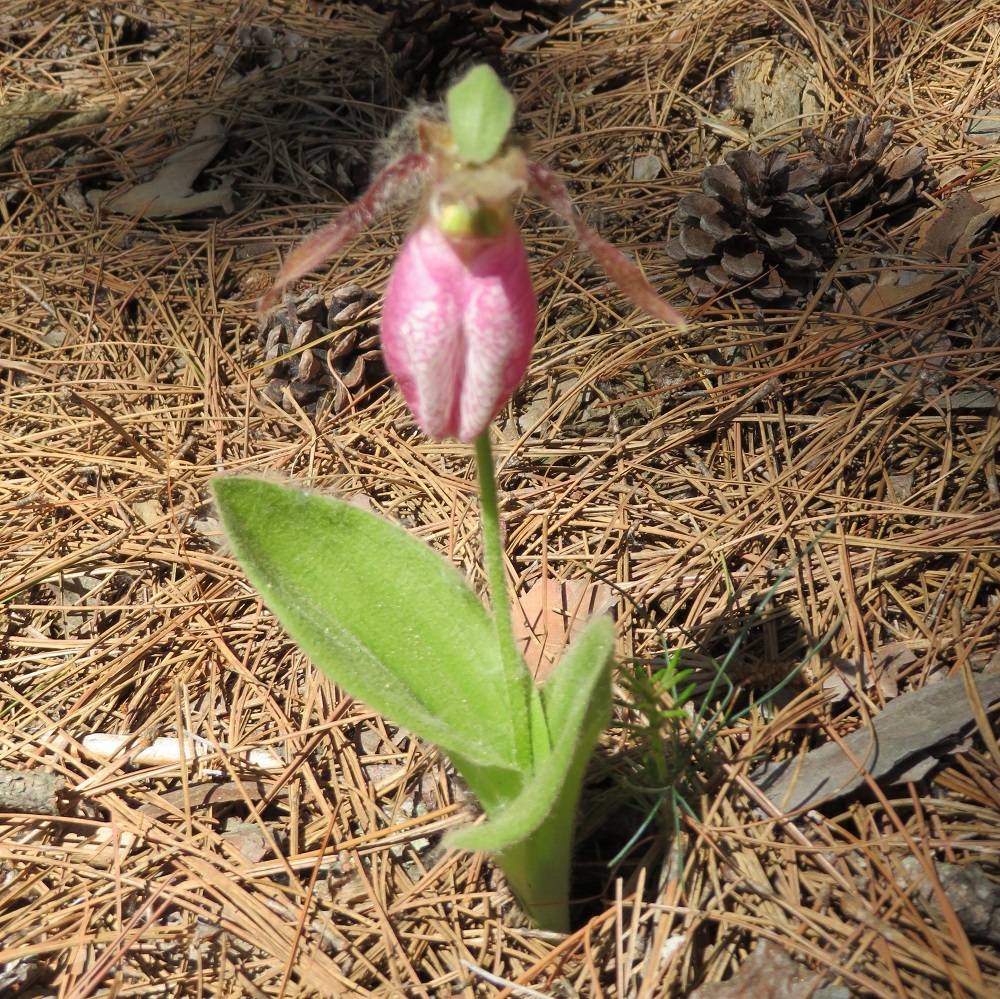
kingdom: Plantae
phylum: Tracheophyta
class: Liliopsida
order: Asparagales
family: Orchidaceae
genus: Cypripedium
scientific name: Cypripedium acaule
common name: Pink lady's-slipper
